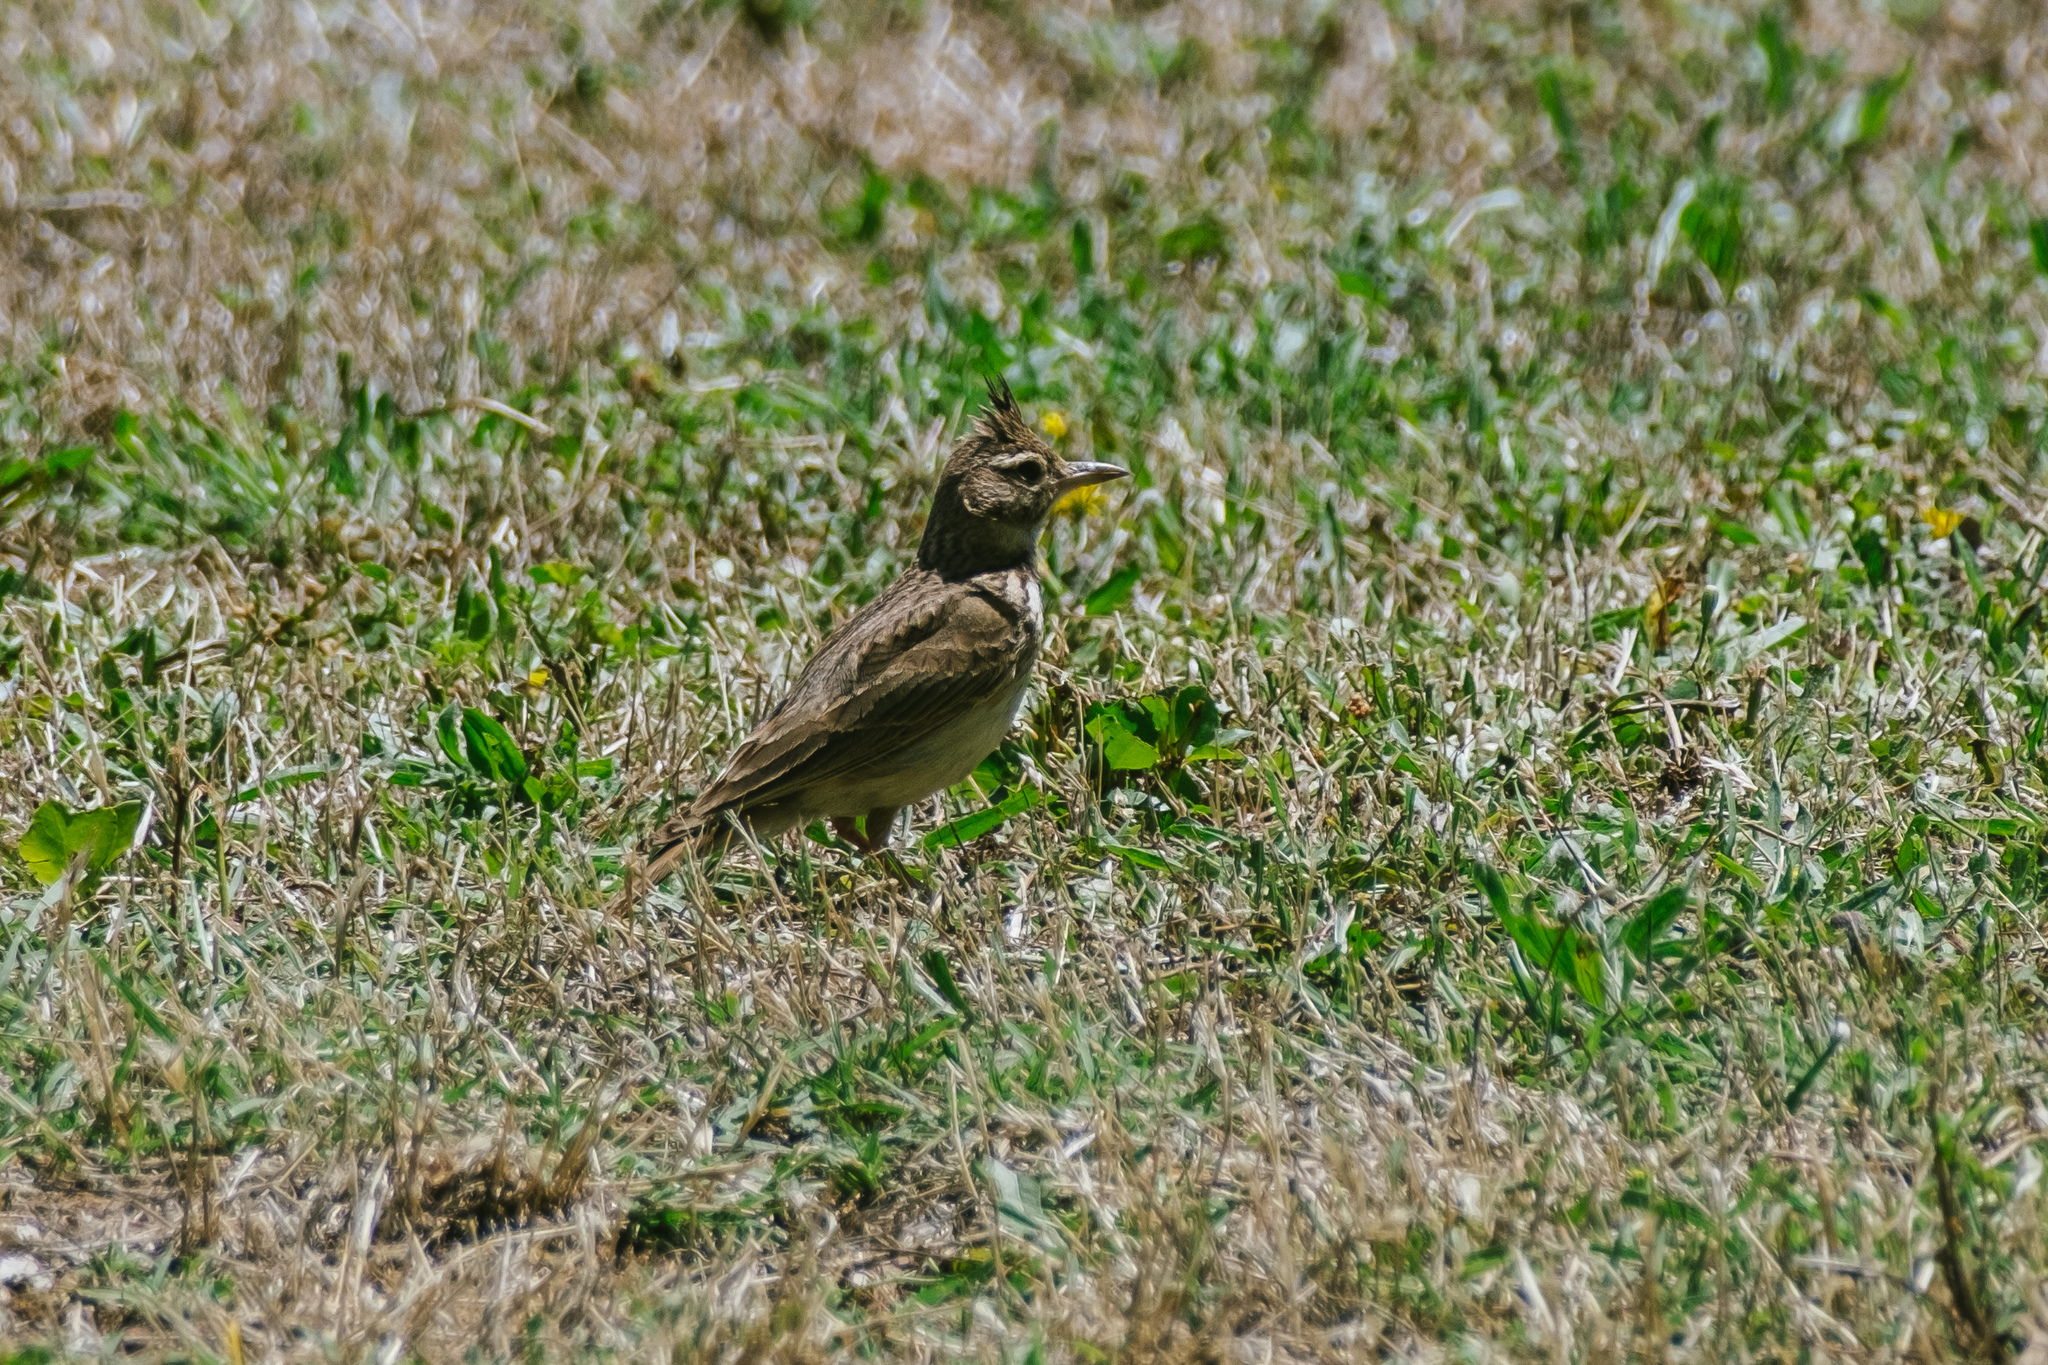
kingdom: Animalia
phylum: Chordata
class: Aves
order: Passeriformes
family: Alaudidae
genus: Galerida
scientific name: Galerida cristata
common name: Crested lark
